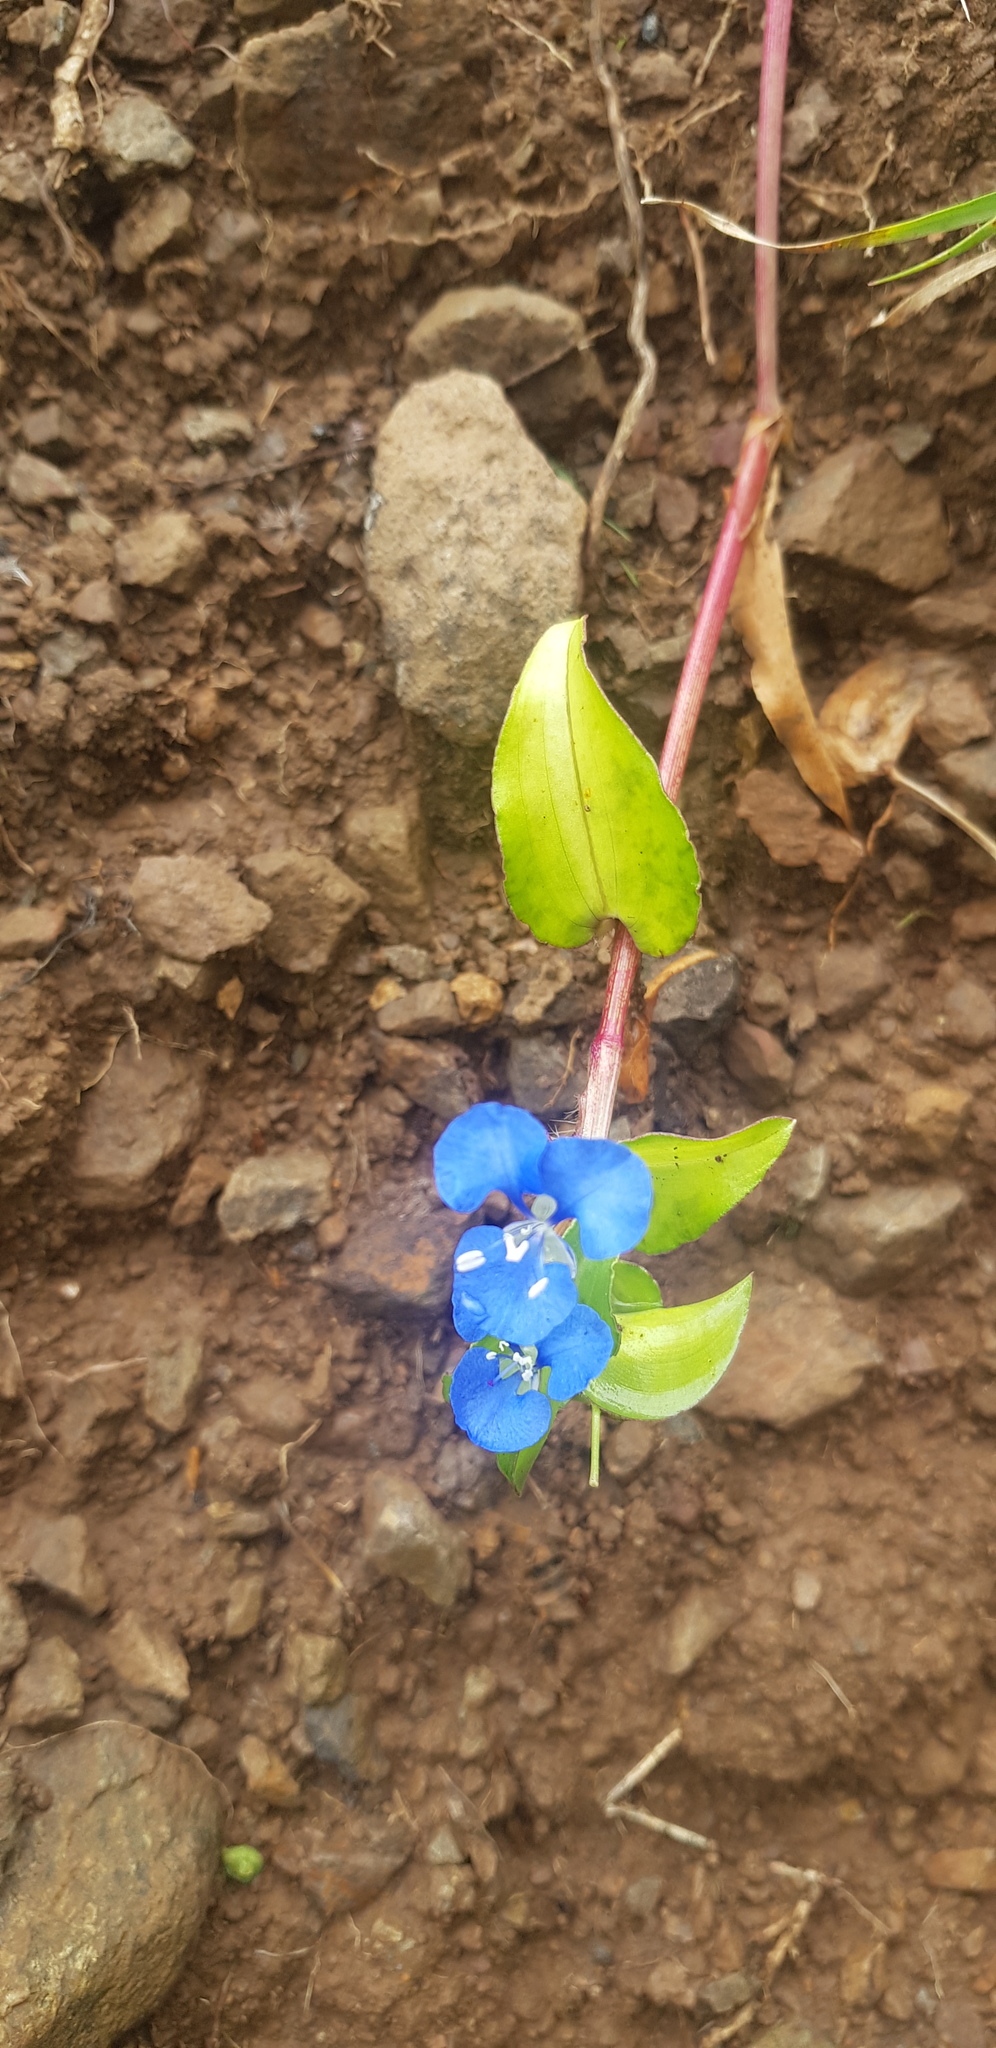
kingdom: Plantae
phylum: Tracheophyta
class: Liliopsida
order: Commelinales
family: Commelinaceae
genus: Commelina
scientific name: Commelina diffusa
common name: Climbing dayflower
